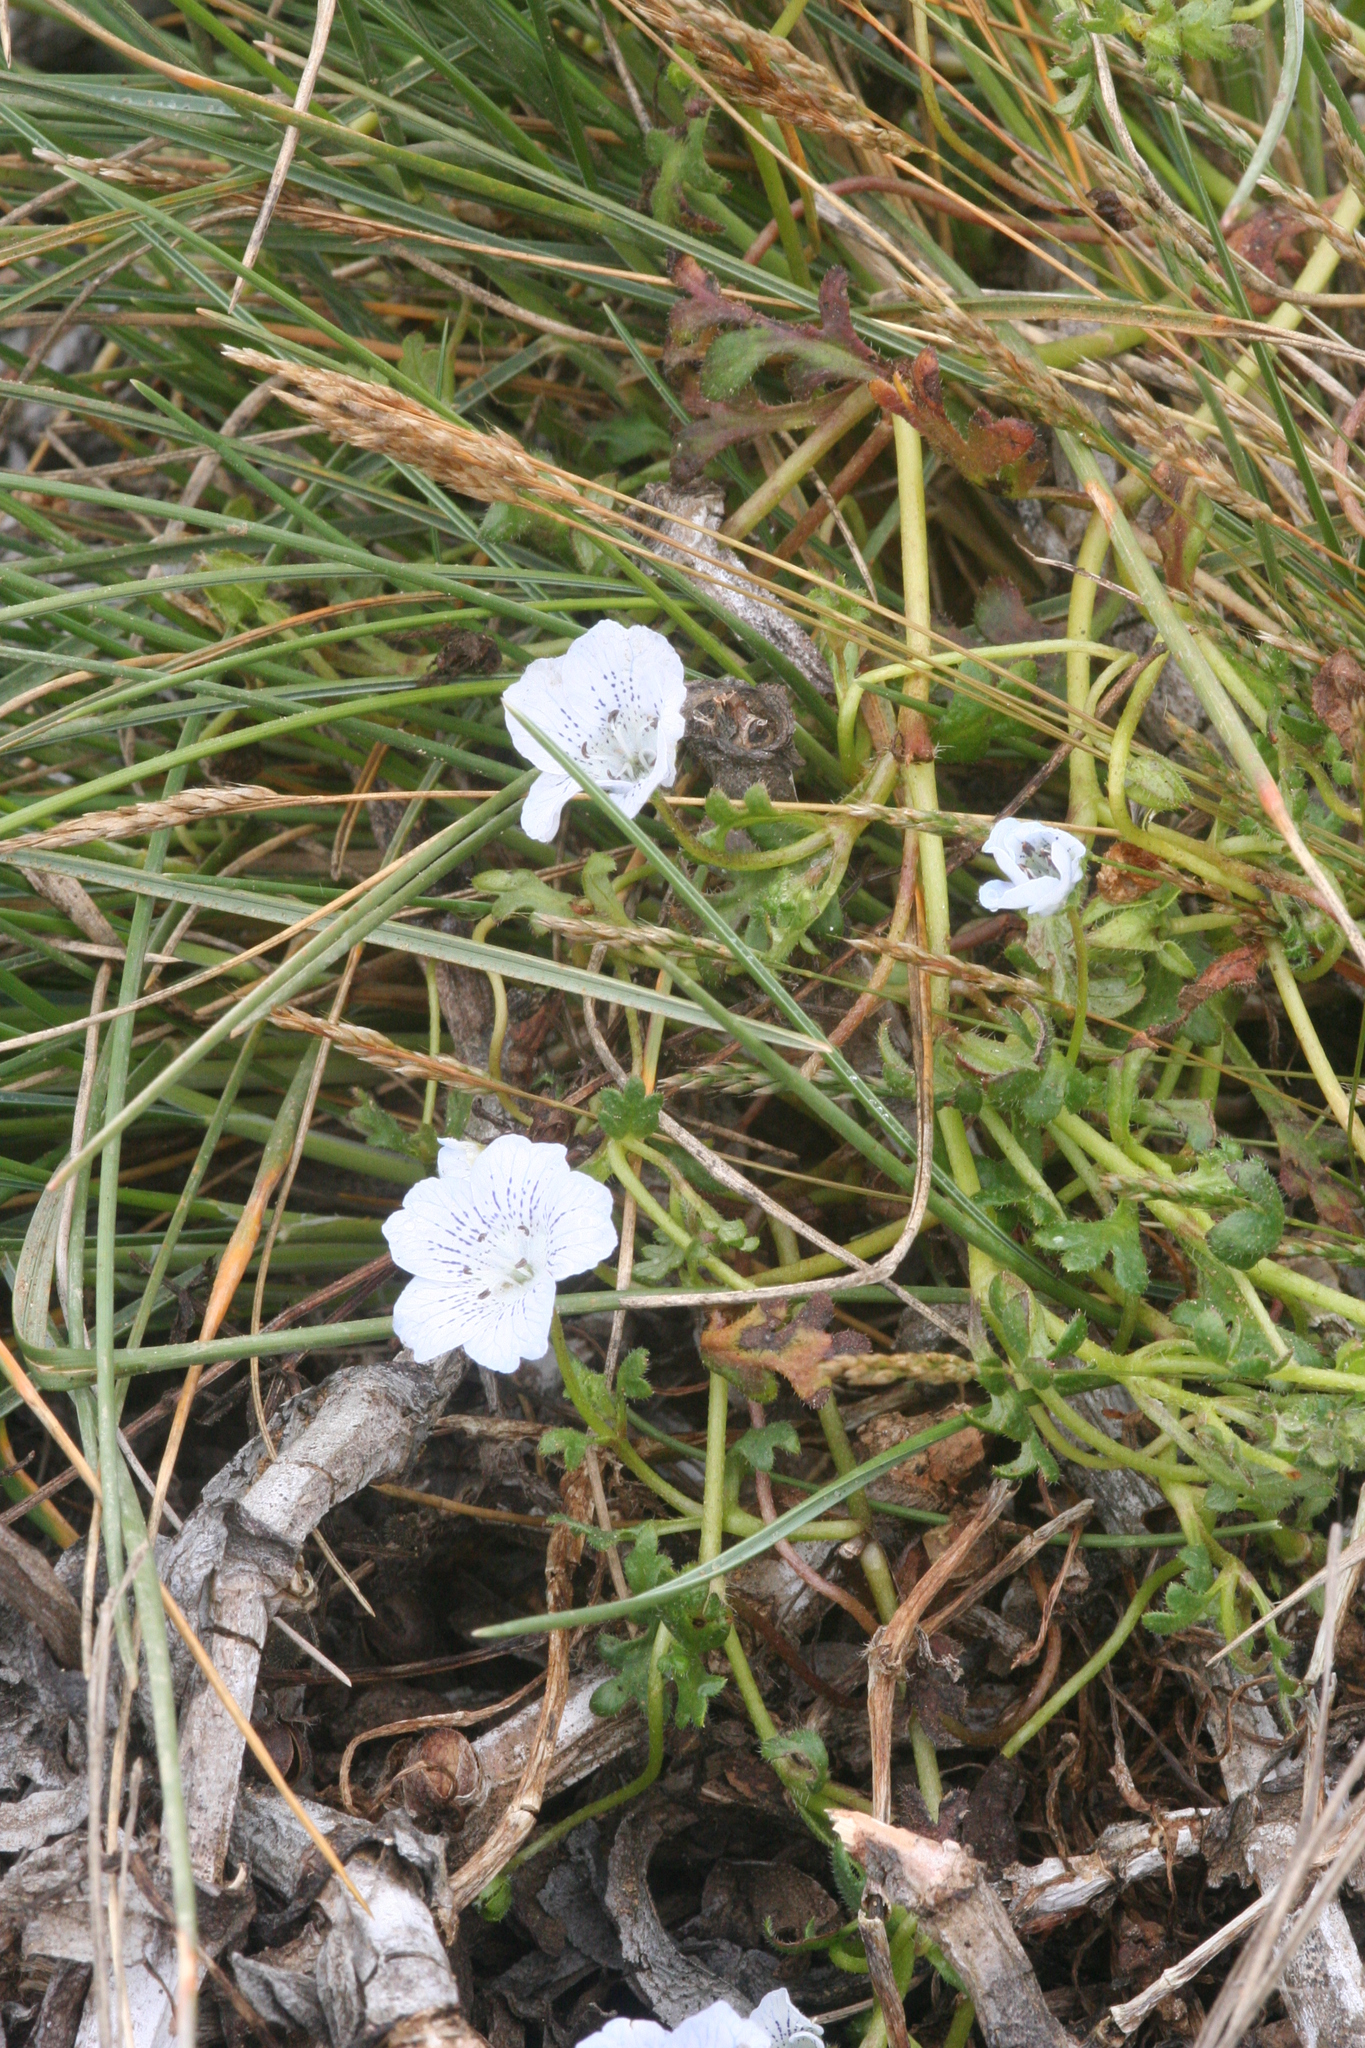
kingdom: Plantae
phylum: Tracheophyta
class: Magnoliopsida
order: Boraginales
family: Hydrophyllaceae
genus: Nemophila
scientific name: Nemophila menziesii
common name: Baby's-blue-eyes
